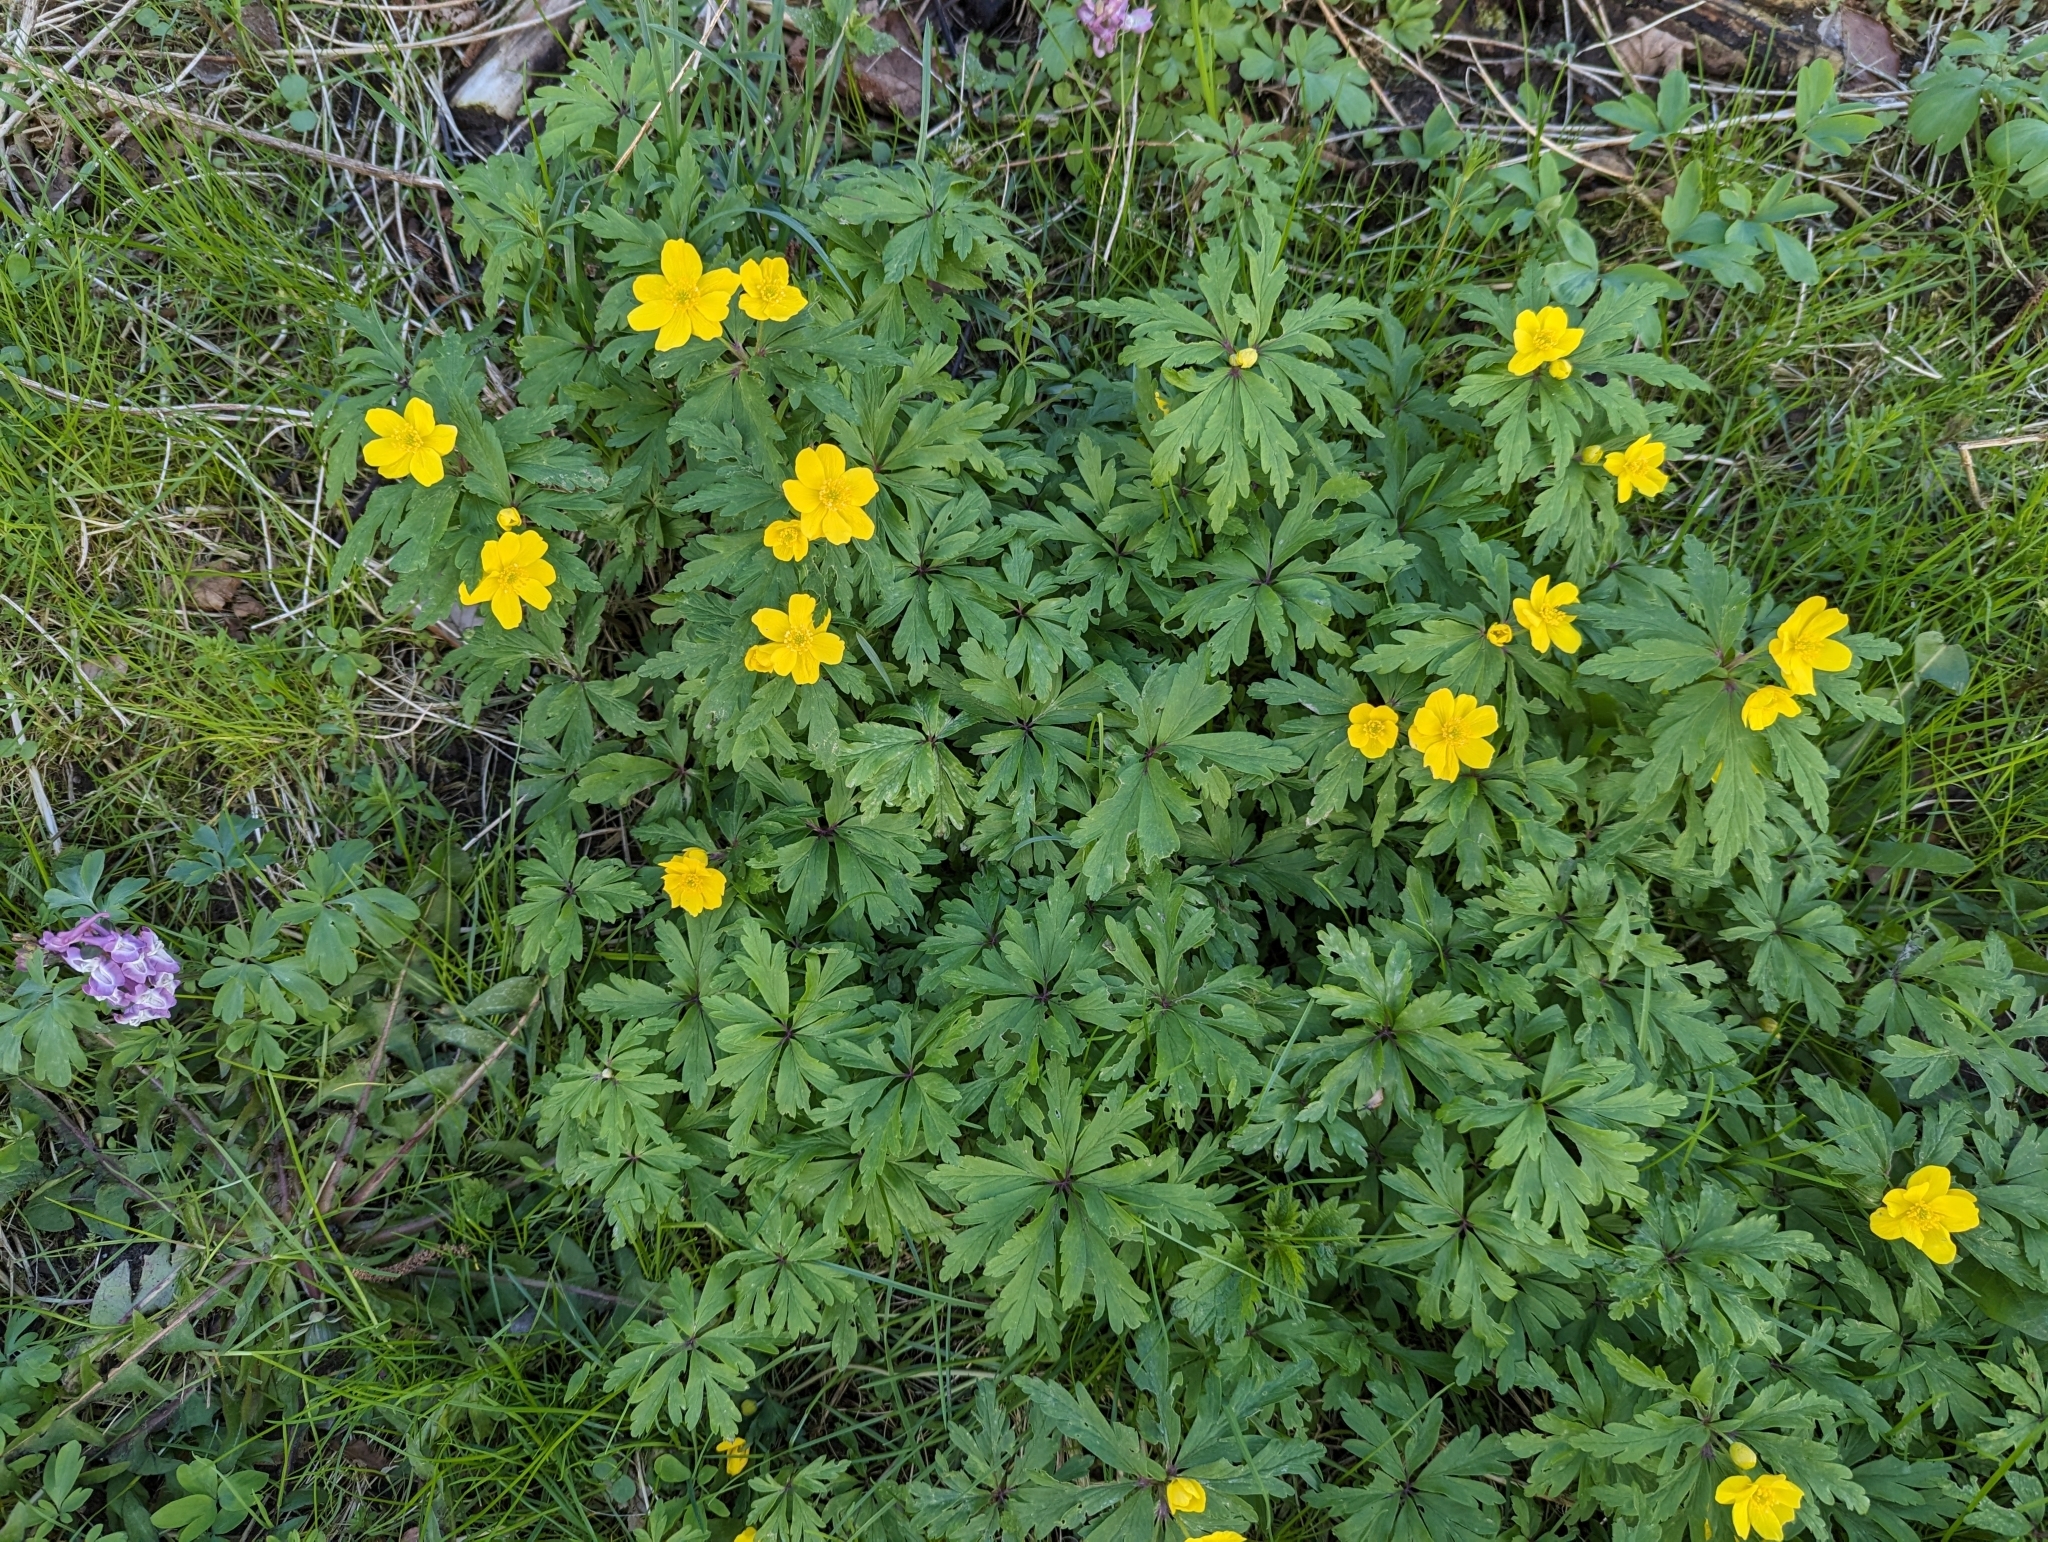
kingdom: Plantae
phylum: Tracheophyta
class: Magnoliopsida
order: Ranunculales
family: Ranunculaceae
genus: Anemone
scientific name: Anemone ranunculoides
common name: Yellow anemone
